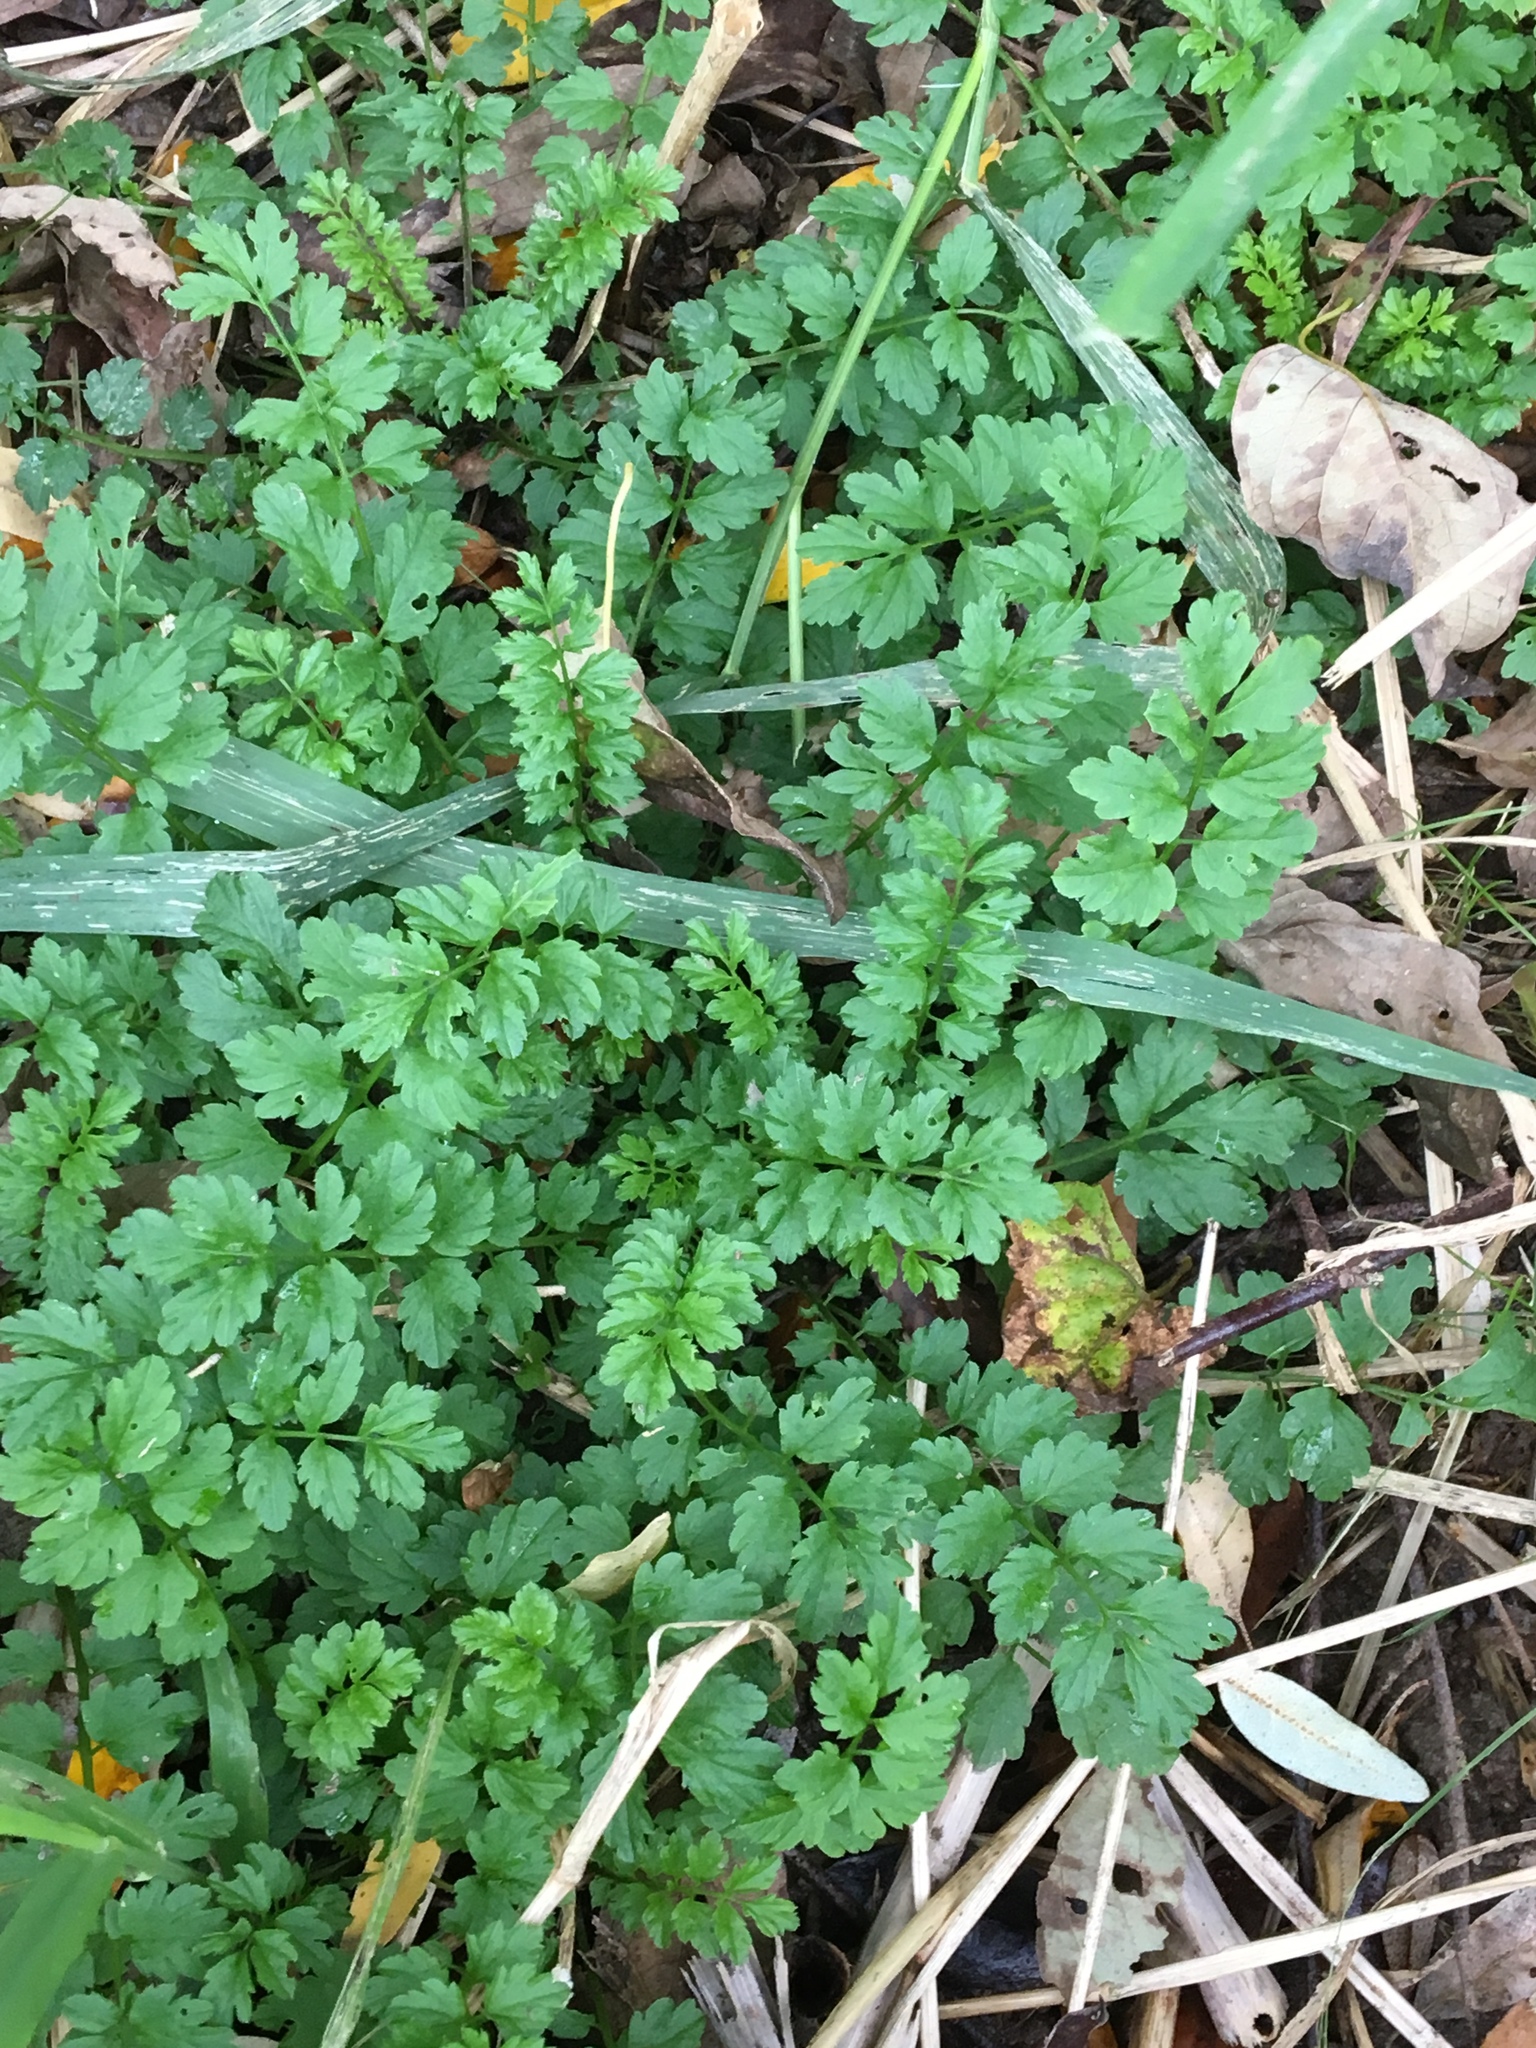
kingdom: Plantae
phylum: Tracheophyta
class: Magnoliopsida
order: Brassicales
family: Brassicaceae
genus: Cardamine
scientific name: Cardamine impatiens
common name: Narrow-leaved bitter-cress
